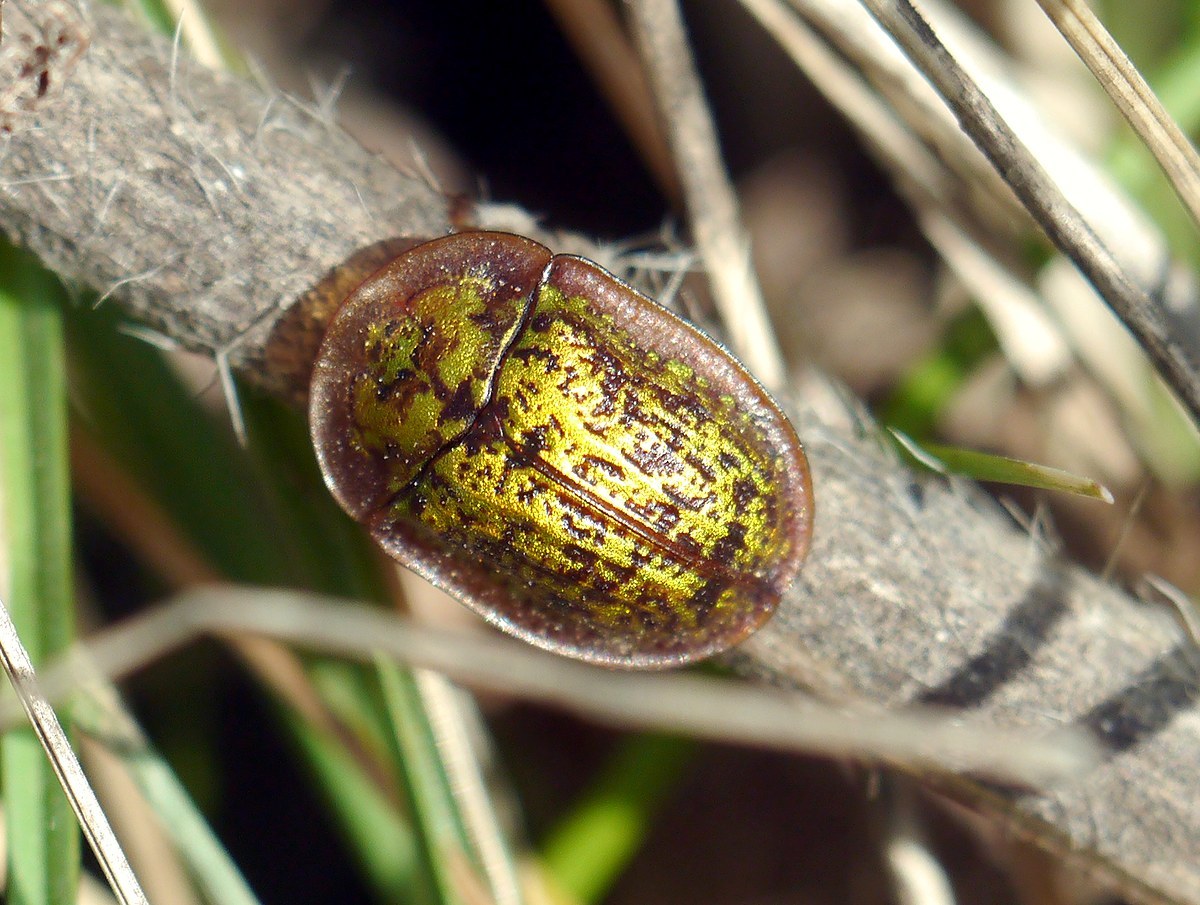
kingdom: Animalia
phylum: Arthropoda
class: Insecta
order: Coleoptera
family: Chrysomelidae
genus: Cassida
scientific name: Cassida canaliculata
